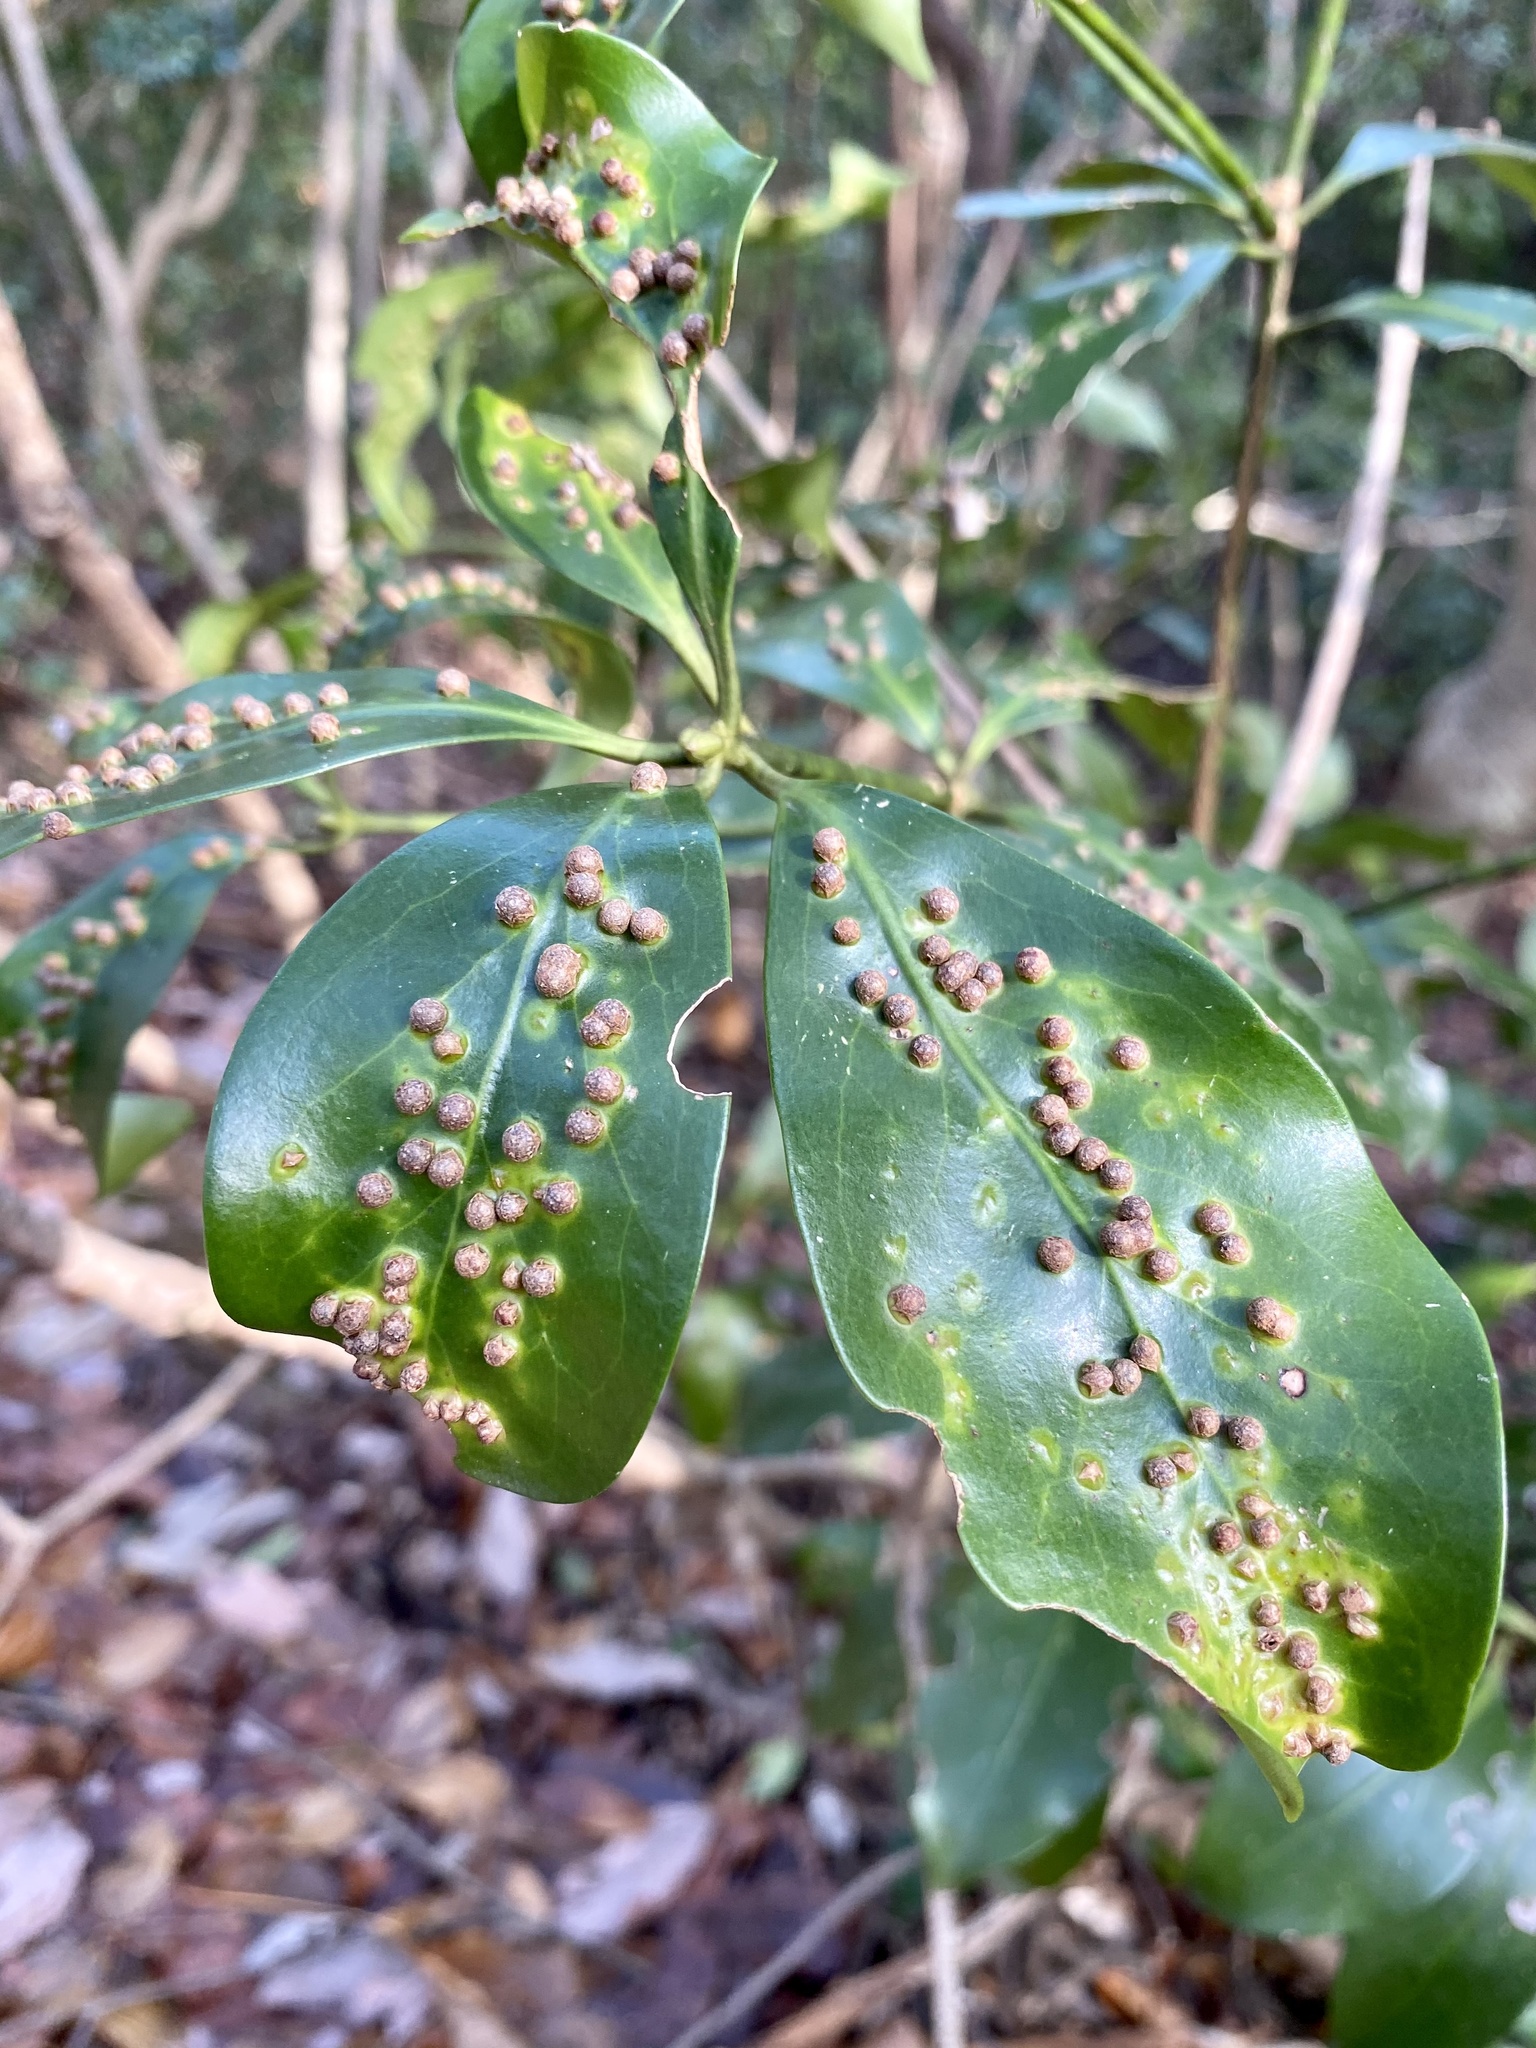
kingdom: Plantae
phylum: Tracheophyta
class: Magnoliopsida
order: Austrobaileyales
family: Schisandraceae
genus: Illicium
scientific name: Illicium anisatum
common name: Sacred anisetree
